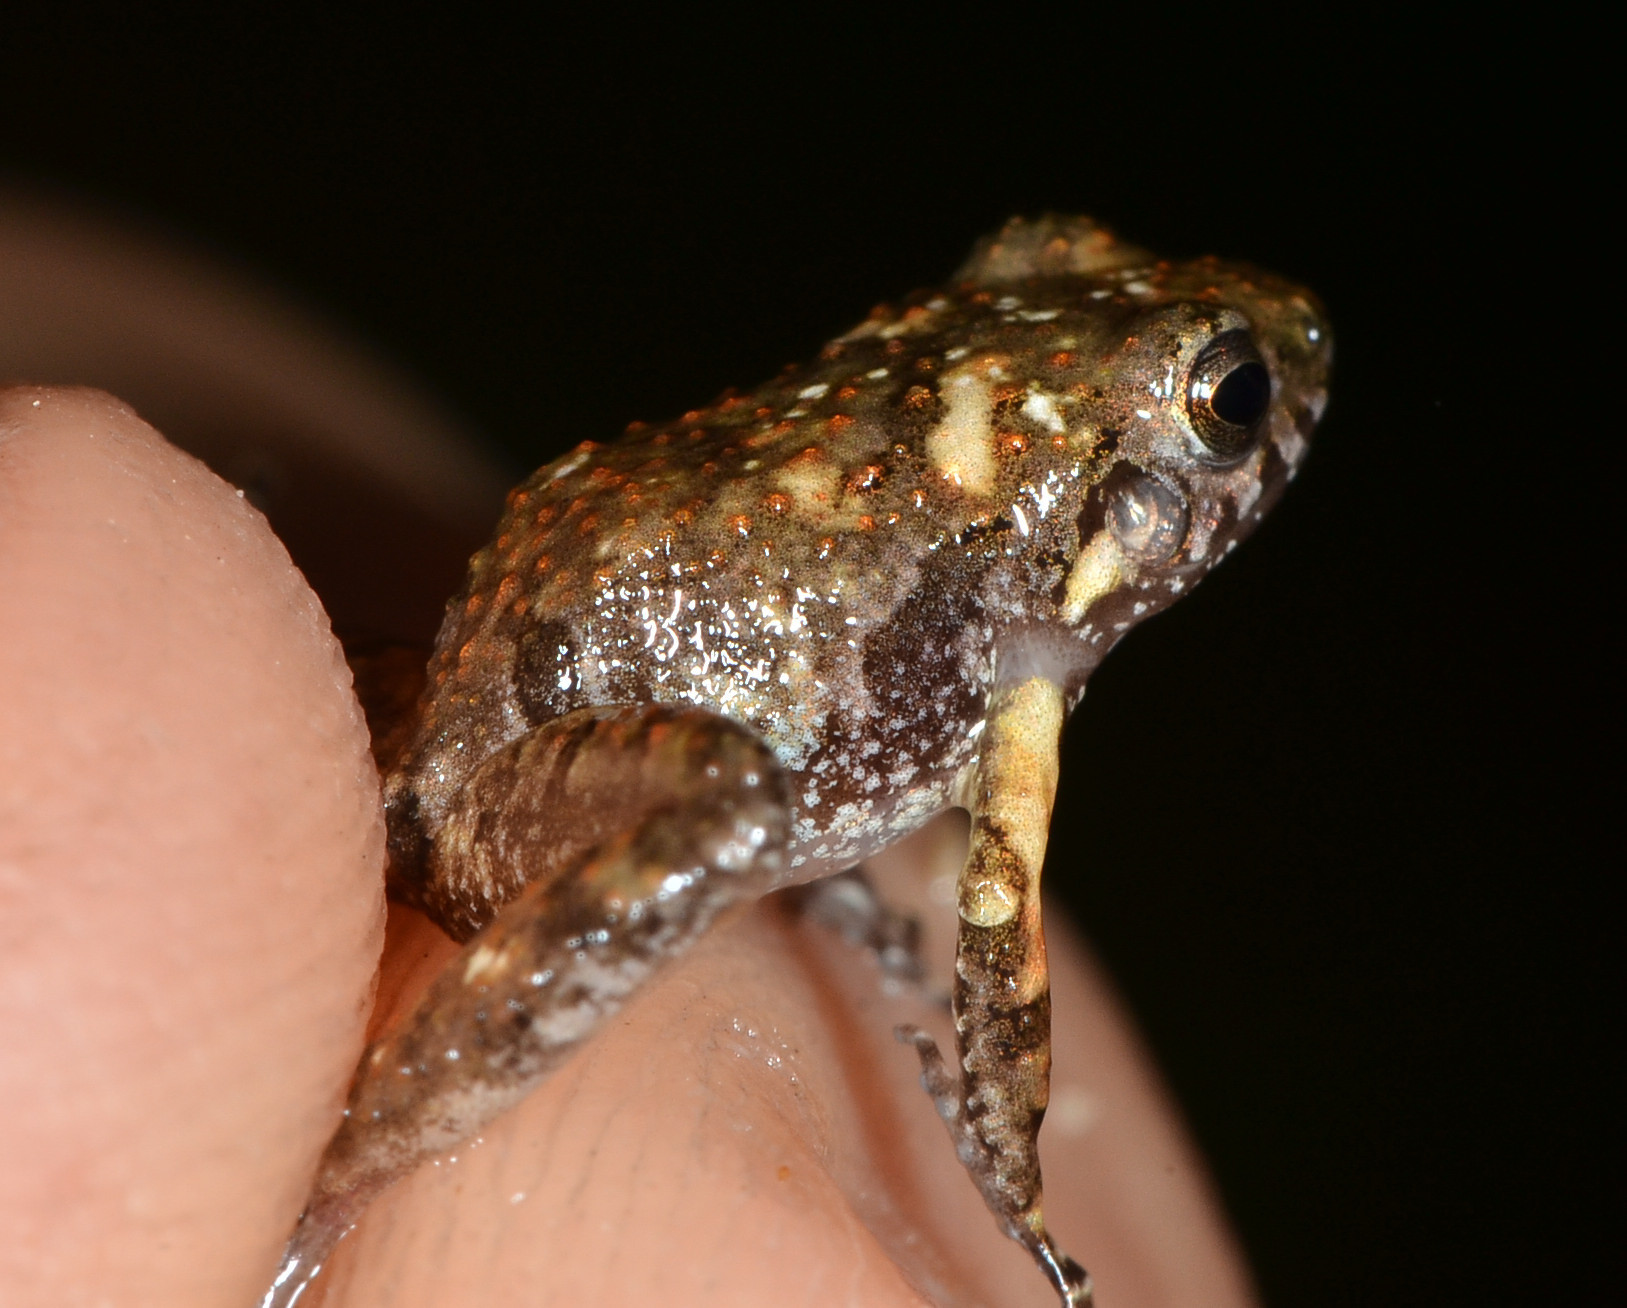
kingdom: Animalia
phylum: Chordata
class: Amphibia
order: Anura
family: Craugastoridae
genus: Craugastor
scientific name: Craugastor pygmaeus
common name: Pygmy free-fingered frog
